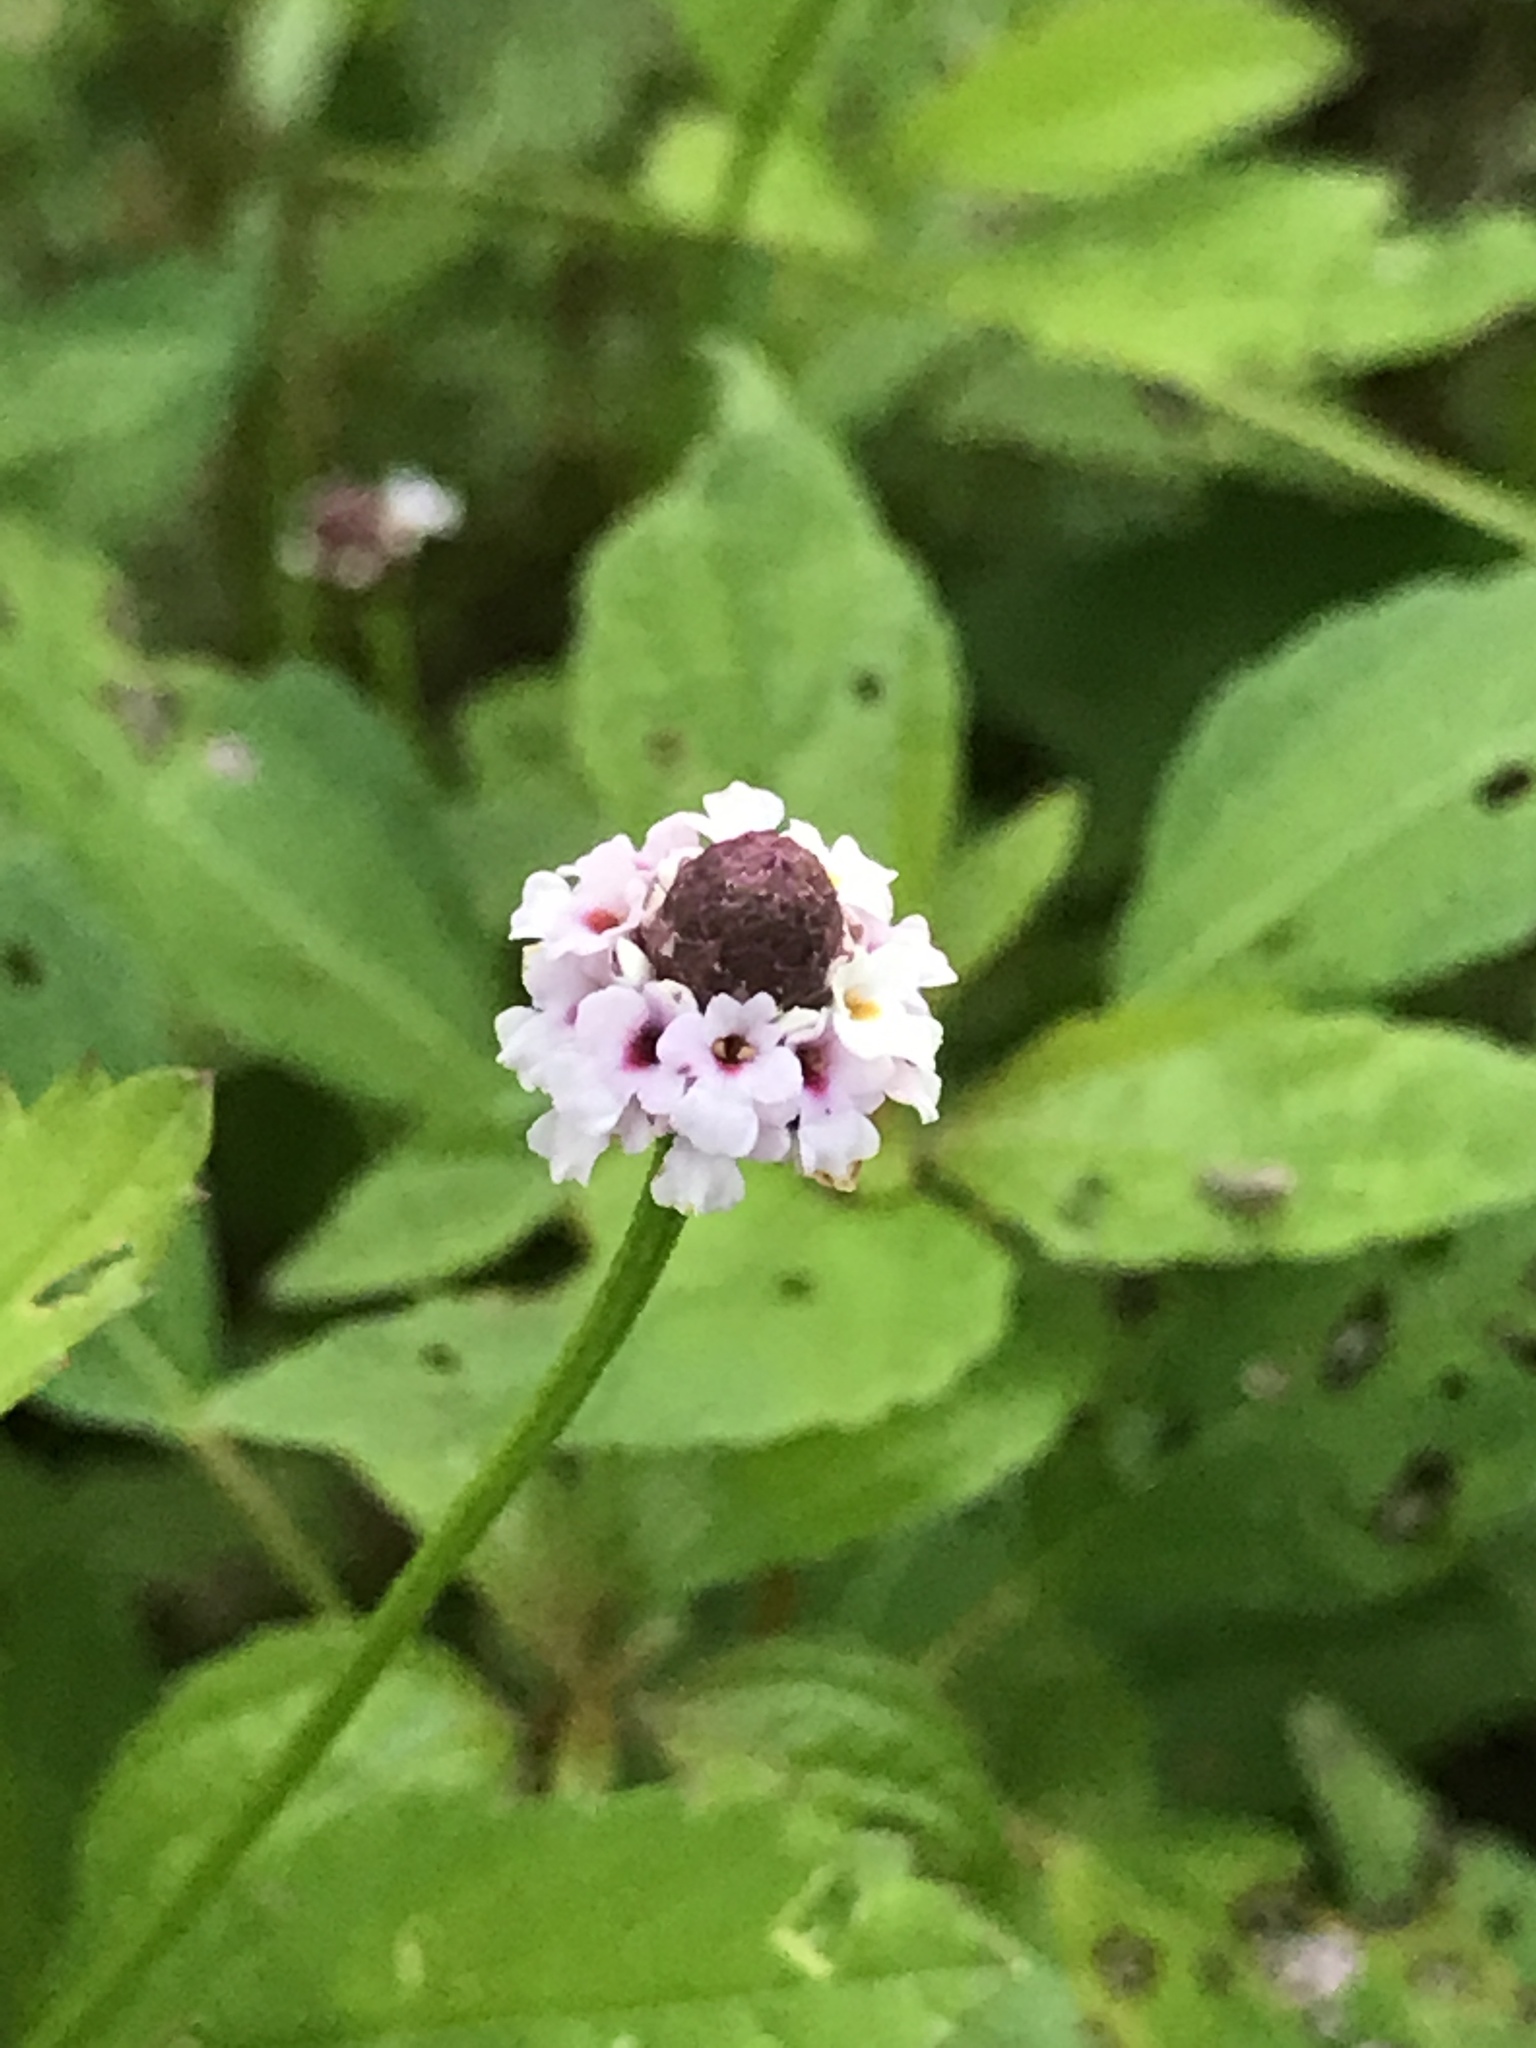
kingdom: Plantae
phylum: Tracheophyta
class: Magnoliopsida
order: Lamiales
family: Verbenaceae
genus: Phyla
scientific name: Phyla lanceolata
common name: Northern fogfruit
